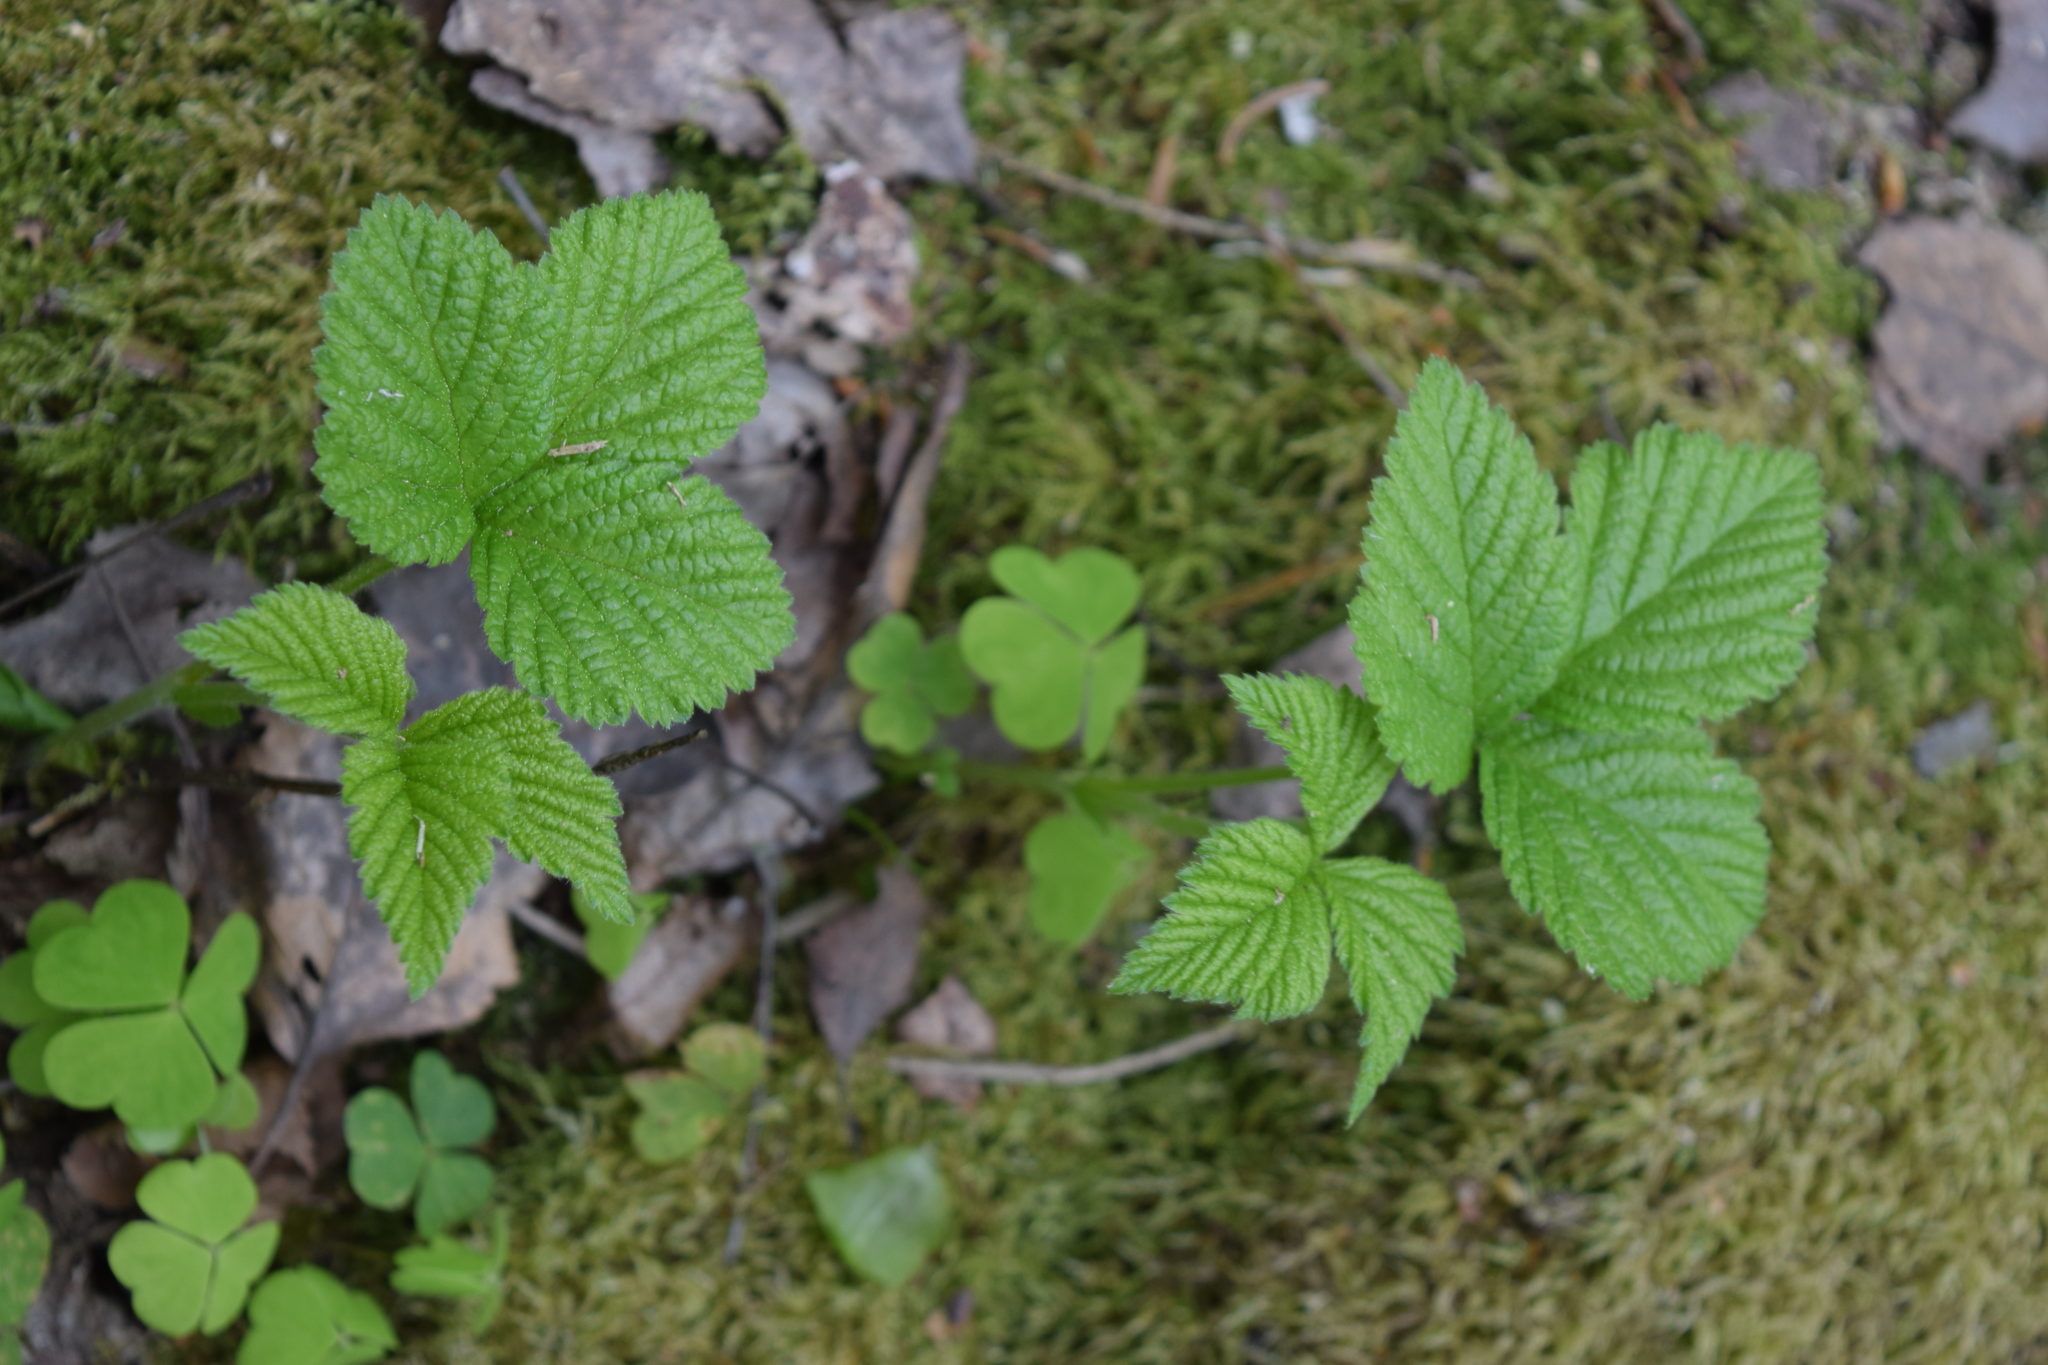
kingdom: Plantae
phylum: Tracheophyta
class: Magnoliopsida
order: Rosales
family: Rosaceae
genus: Rubus
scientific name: Rubus saxatilis
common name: Stone bramble
